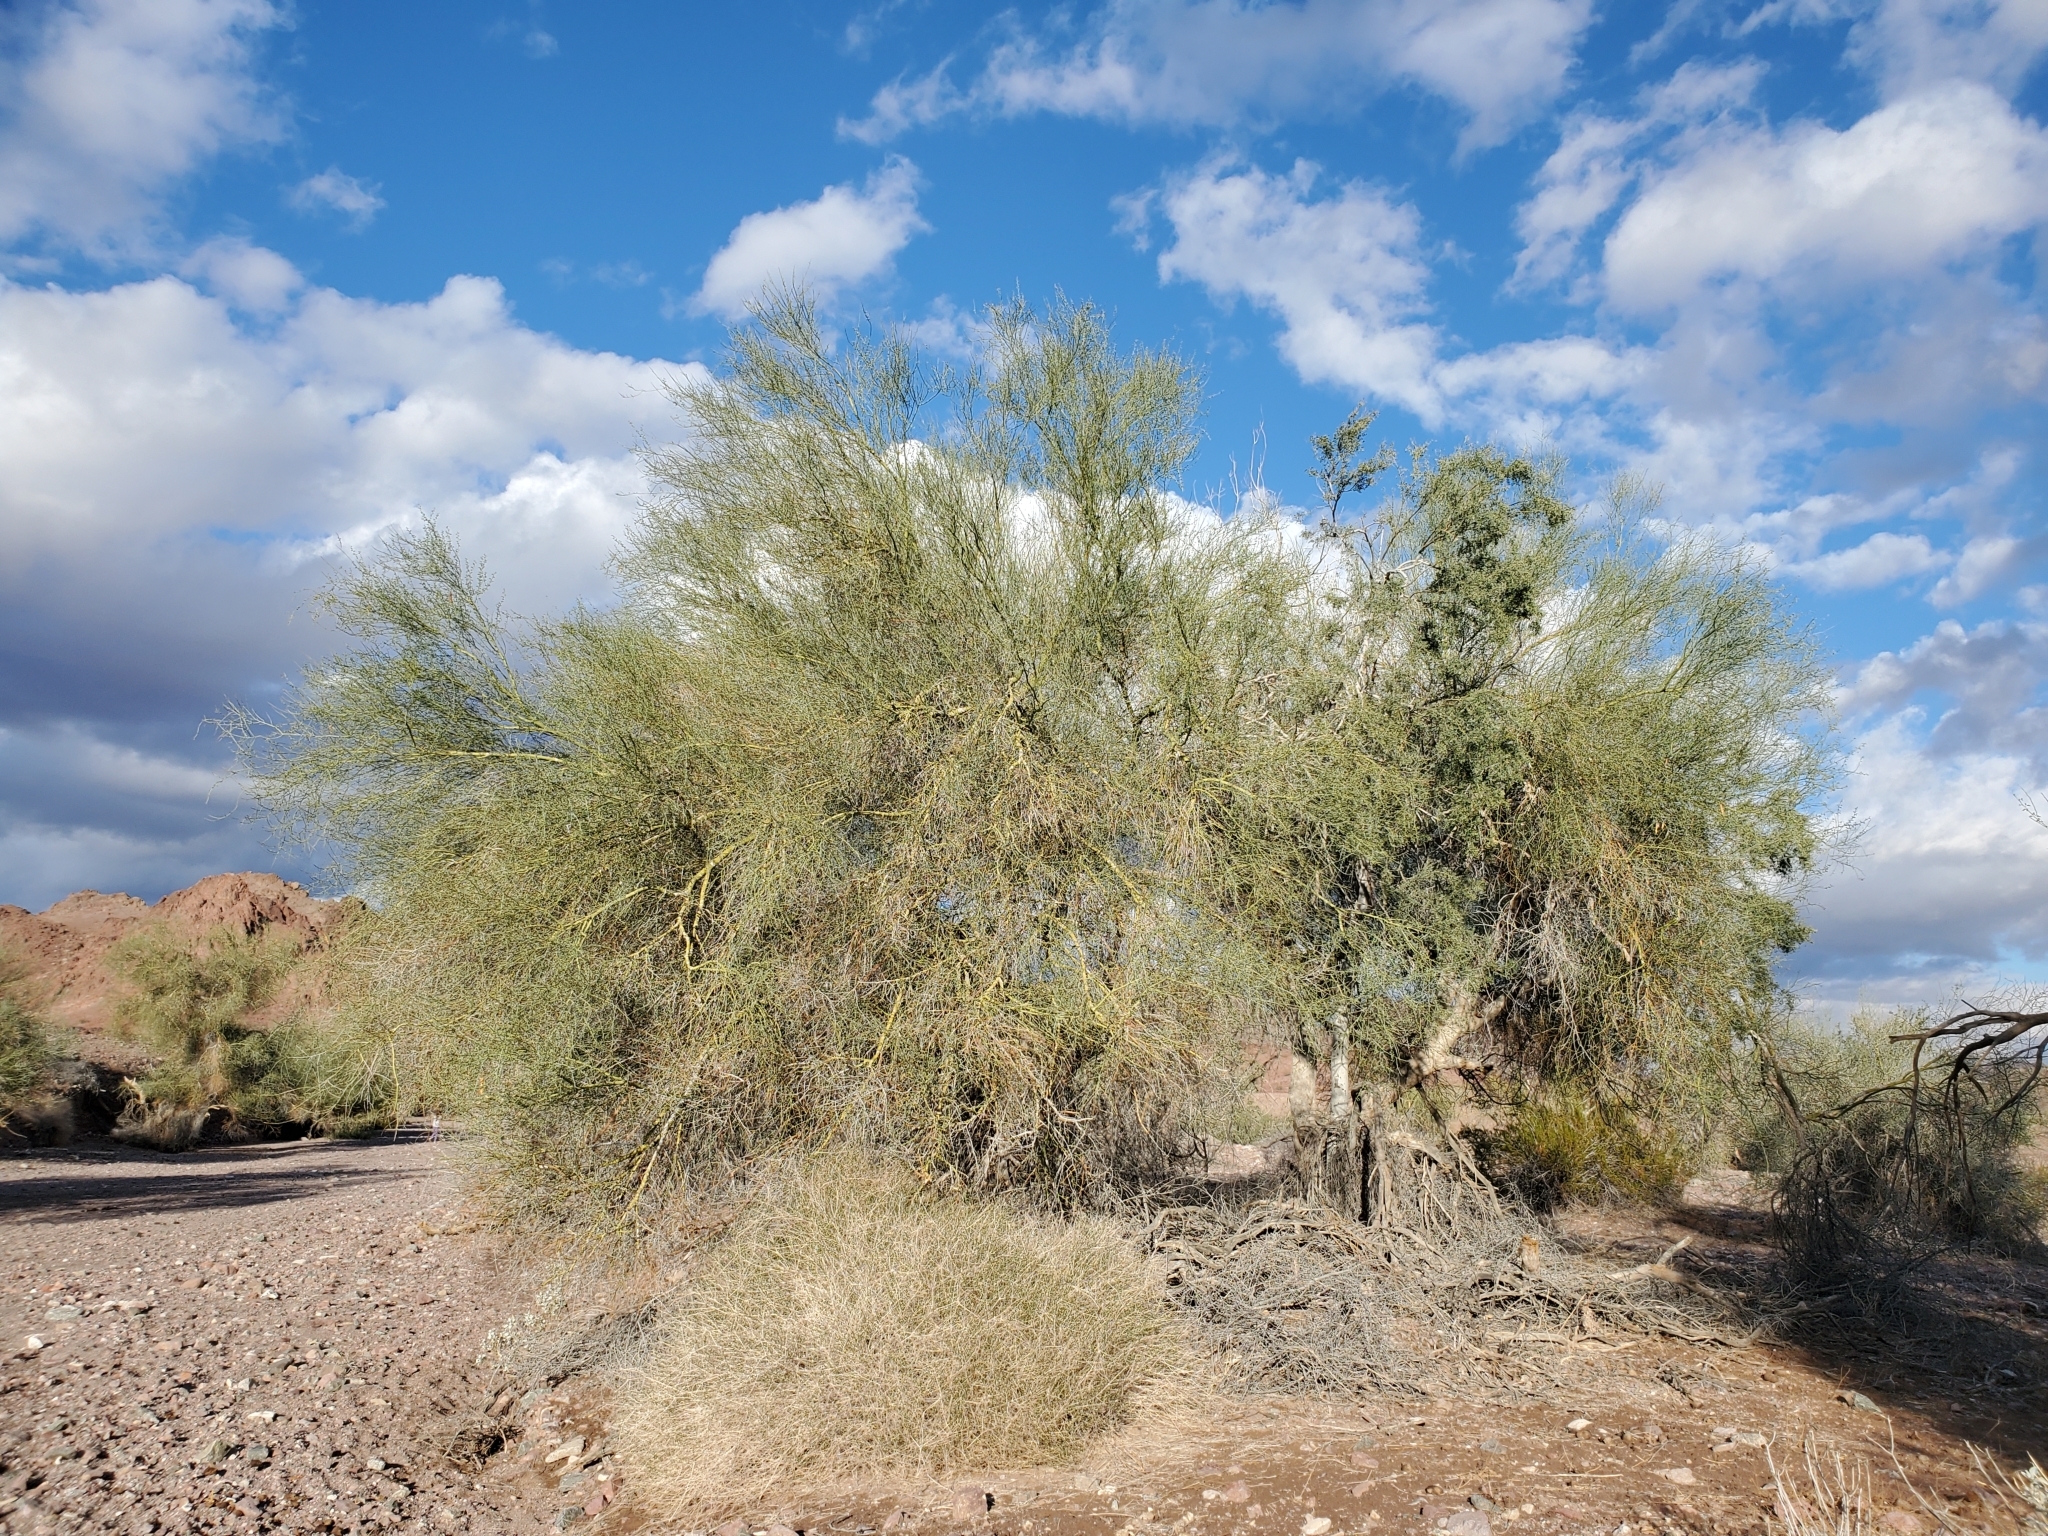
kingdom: Plantae
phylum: Tracheophyta
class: Magnoliopsida
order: Fabales
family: Fabaceae
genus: Parkinsonia
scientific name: Parkinsonia florida
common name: Blue paloverde
